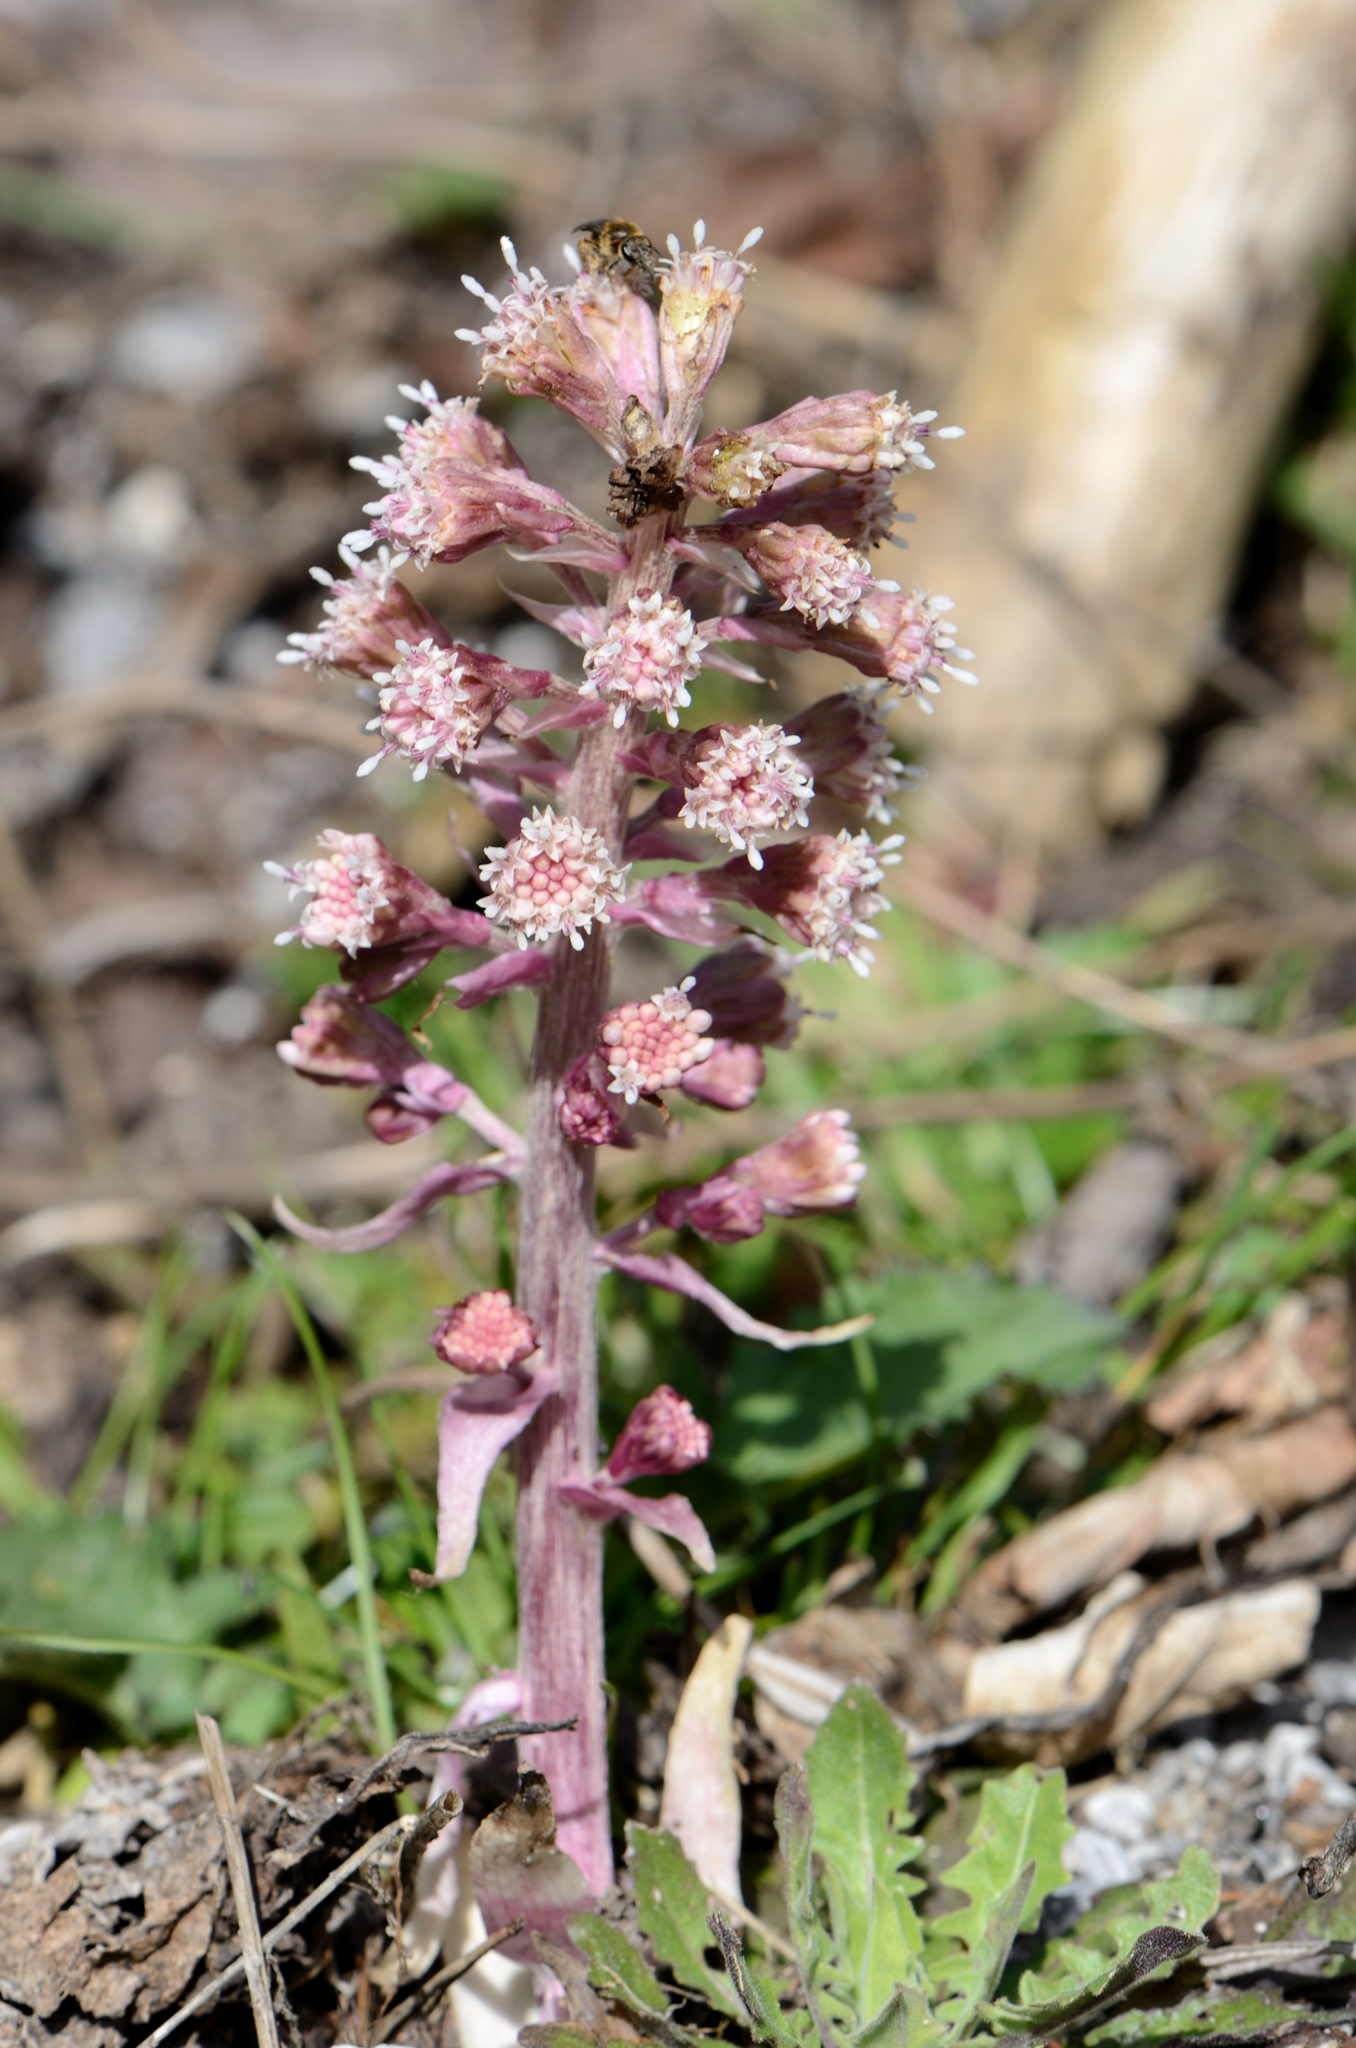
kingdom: Plantae
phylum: Tracheophyta
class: Magnoliopsida
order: Asterales
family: Asteraceae
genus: Petasites
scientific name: Petasites hybridus
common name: Butterbur
